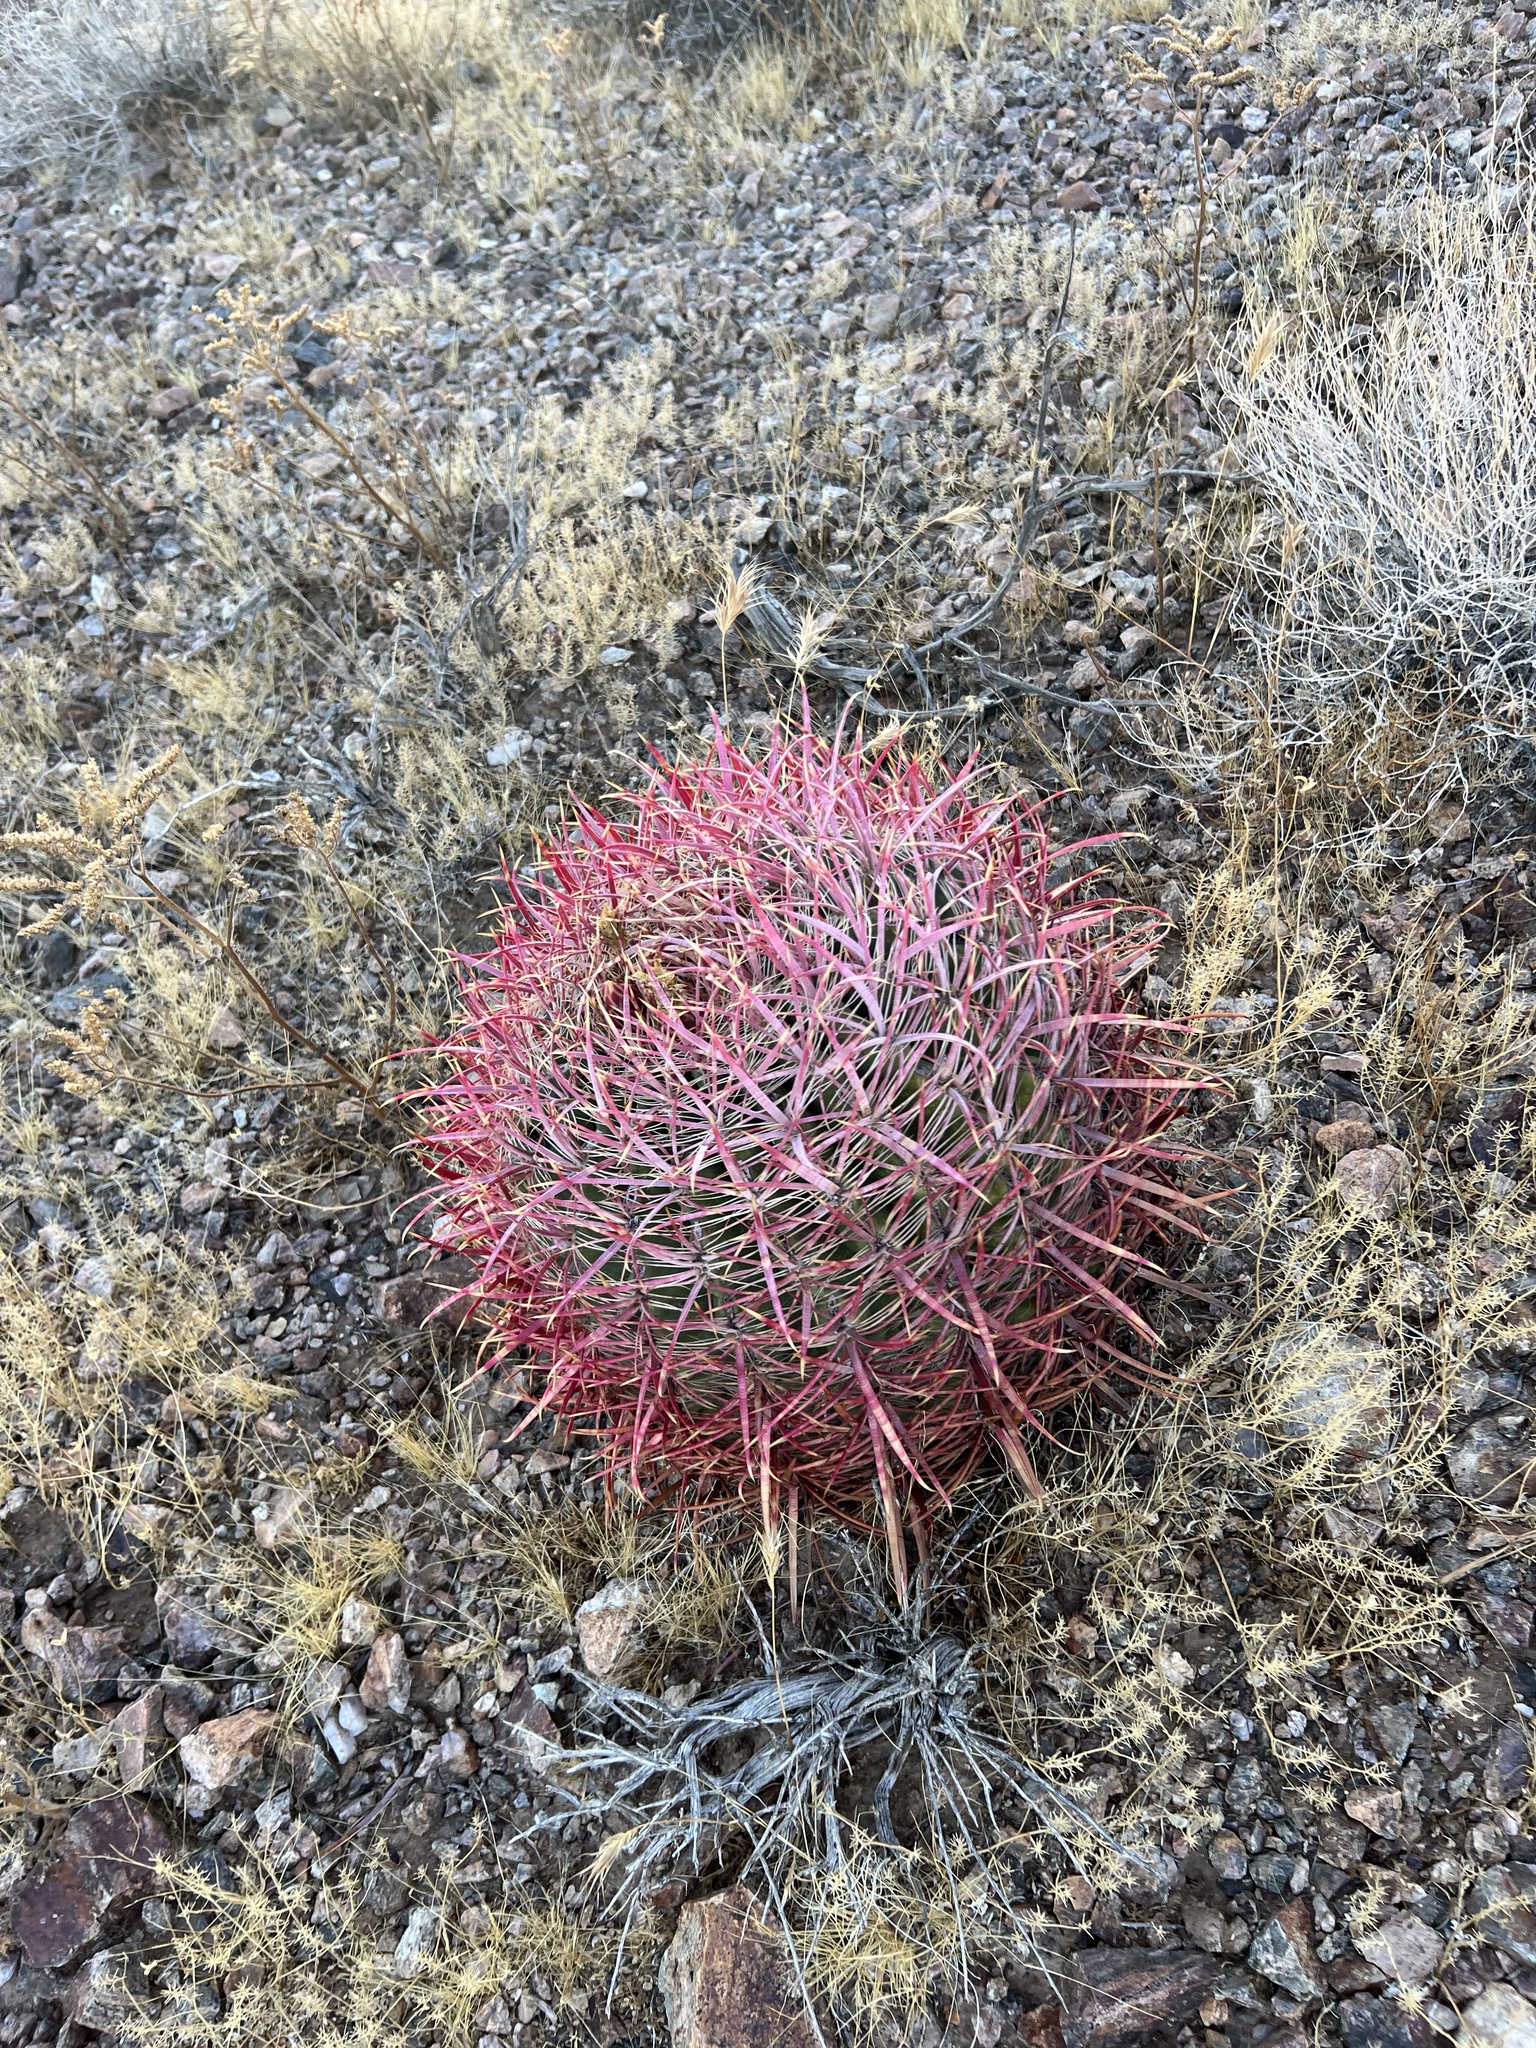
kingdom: Plantae
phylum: Tracheophyta
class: Magnoliopsida
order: Caryophyllales
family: Cactaceae
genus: Ferocactus
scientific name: Ferocactus cylindraceus
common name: California barrel cactus
